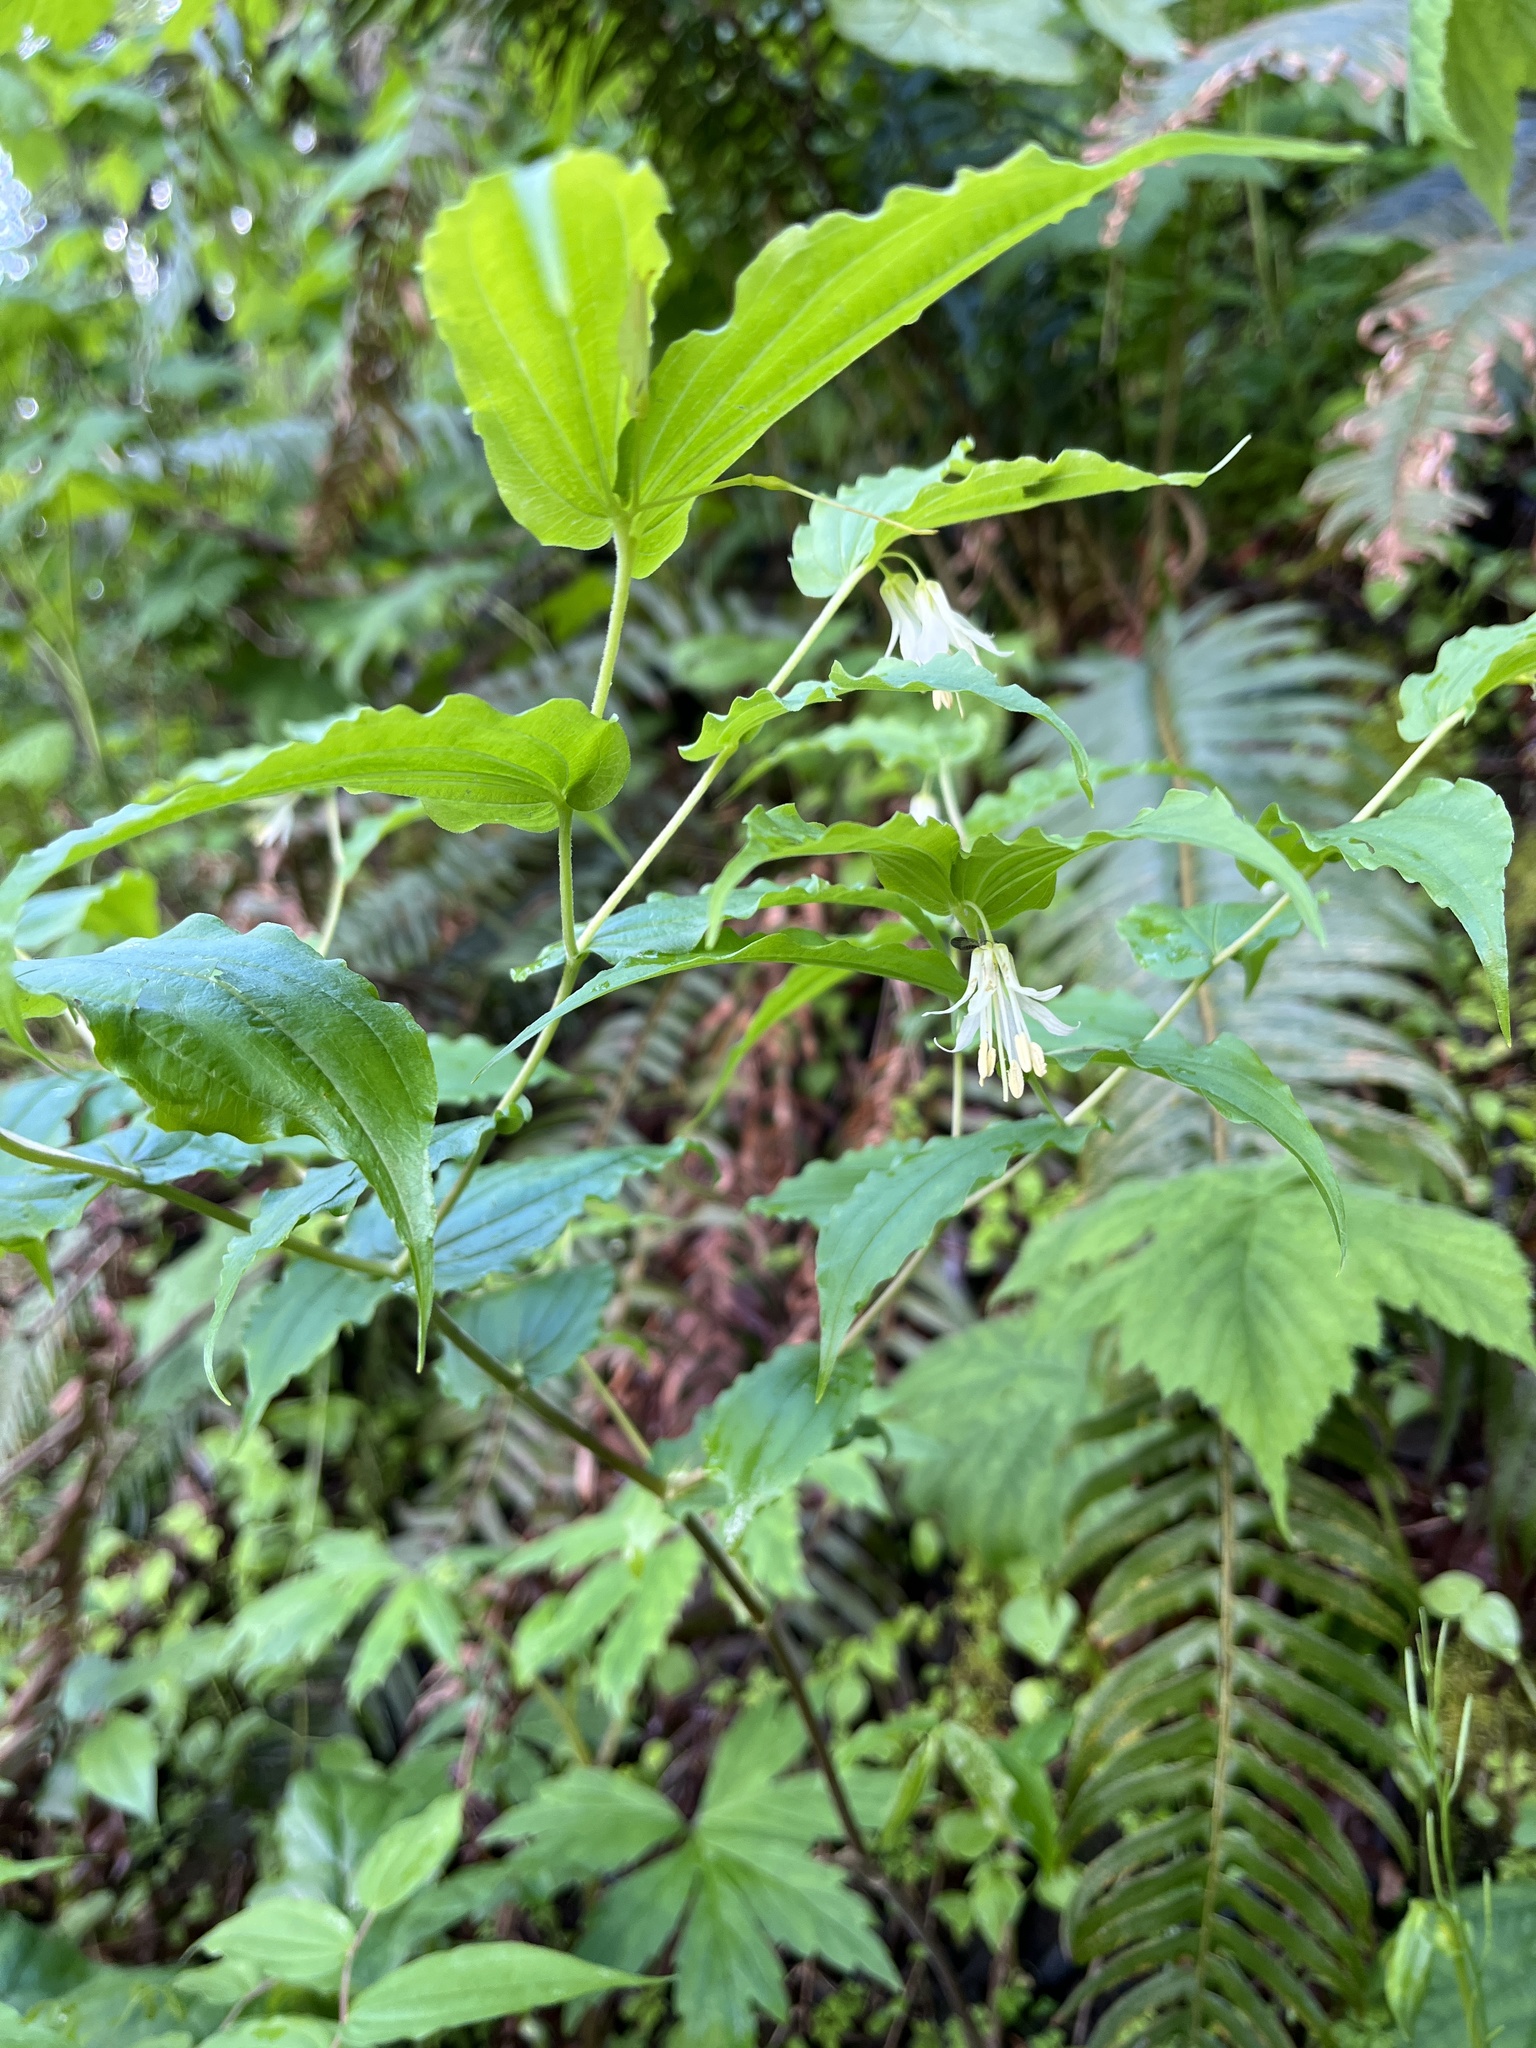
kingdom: Plantae
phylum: Tracheophyta
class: Liliopsida
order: Liliales
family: Liliaceae
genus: Prosartes
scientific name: Prosartes hookeri
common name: Fairy-bells
